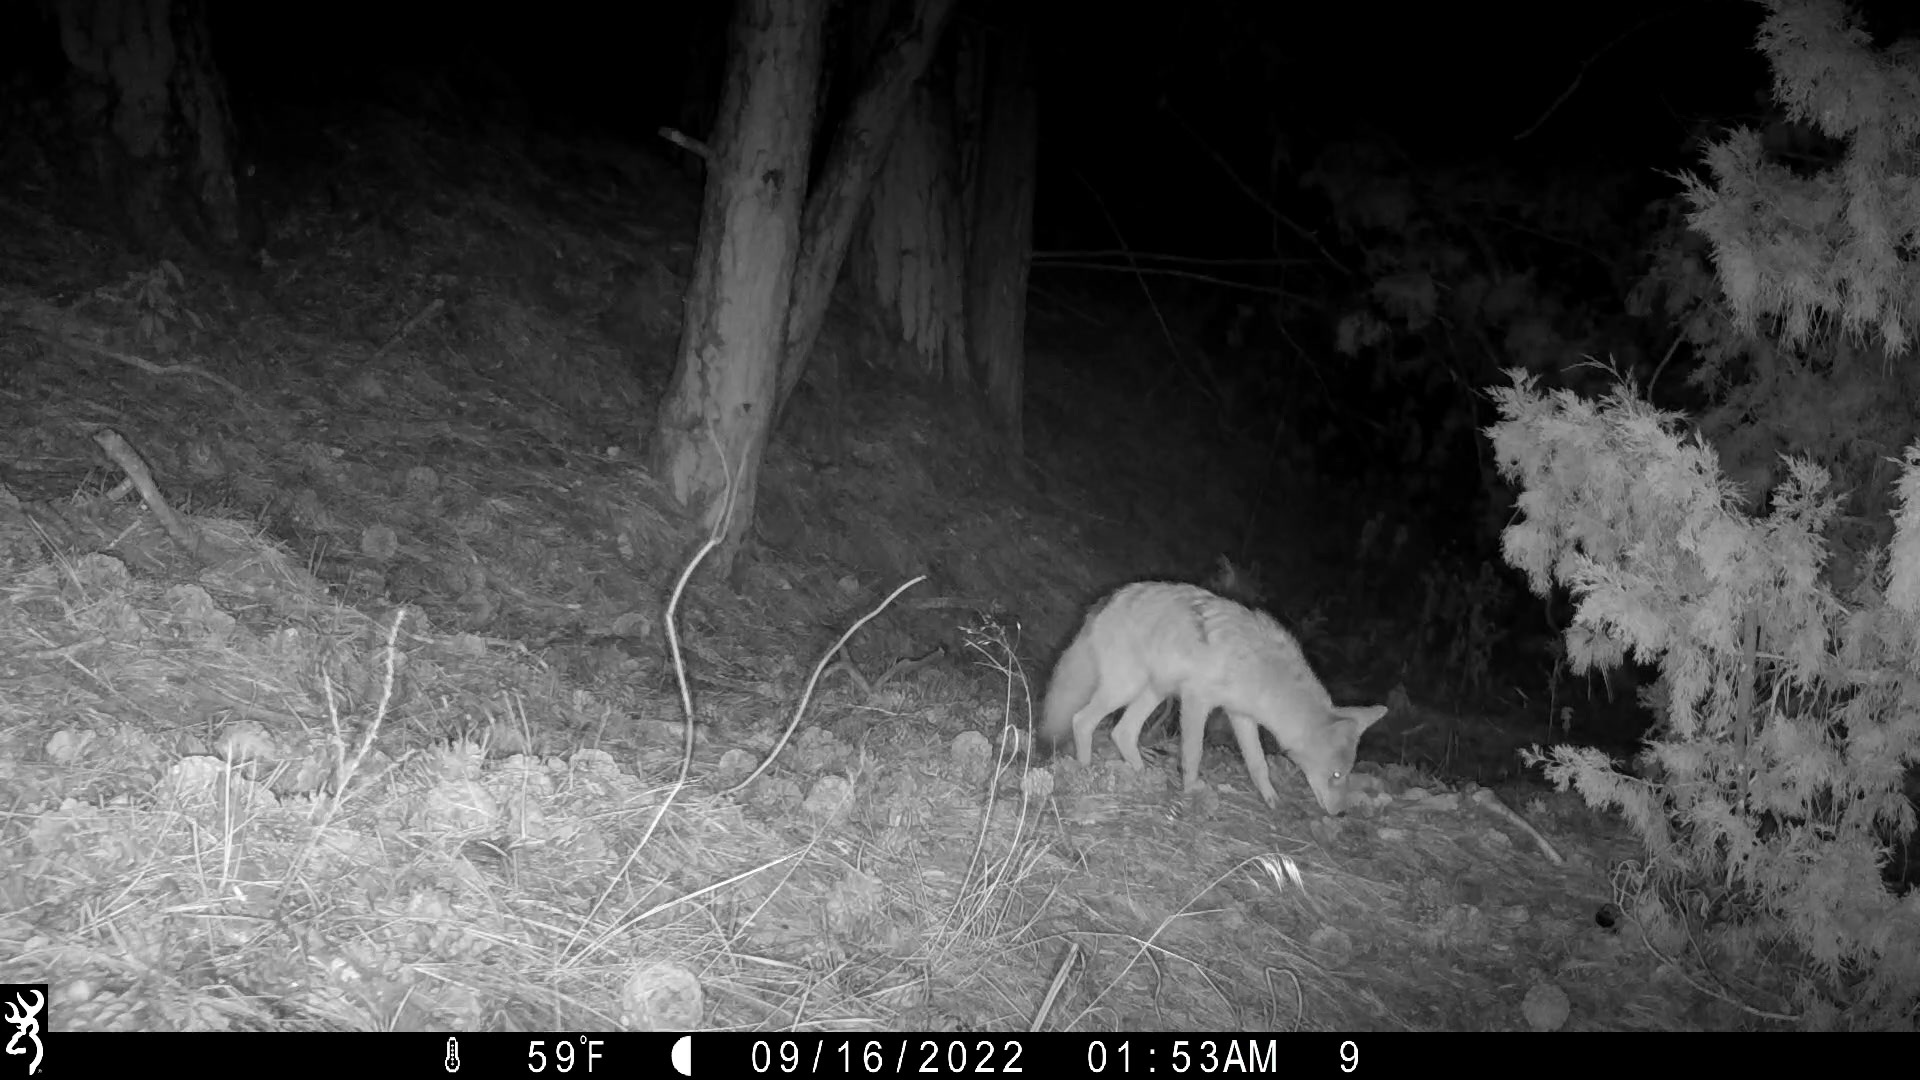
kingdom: Animalia
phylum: Chordata
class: Mammalia
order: Carnivora
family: Canidae
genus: Canis
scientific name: Canis latrans
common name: Coyote
